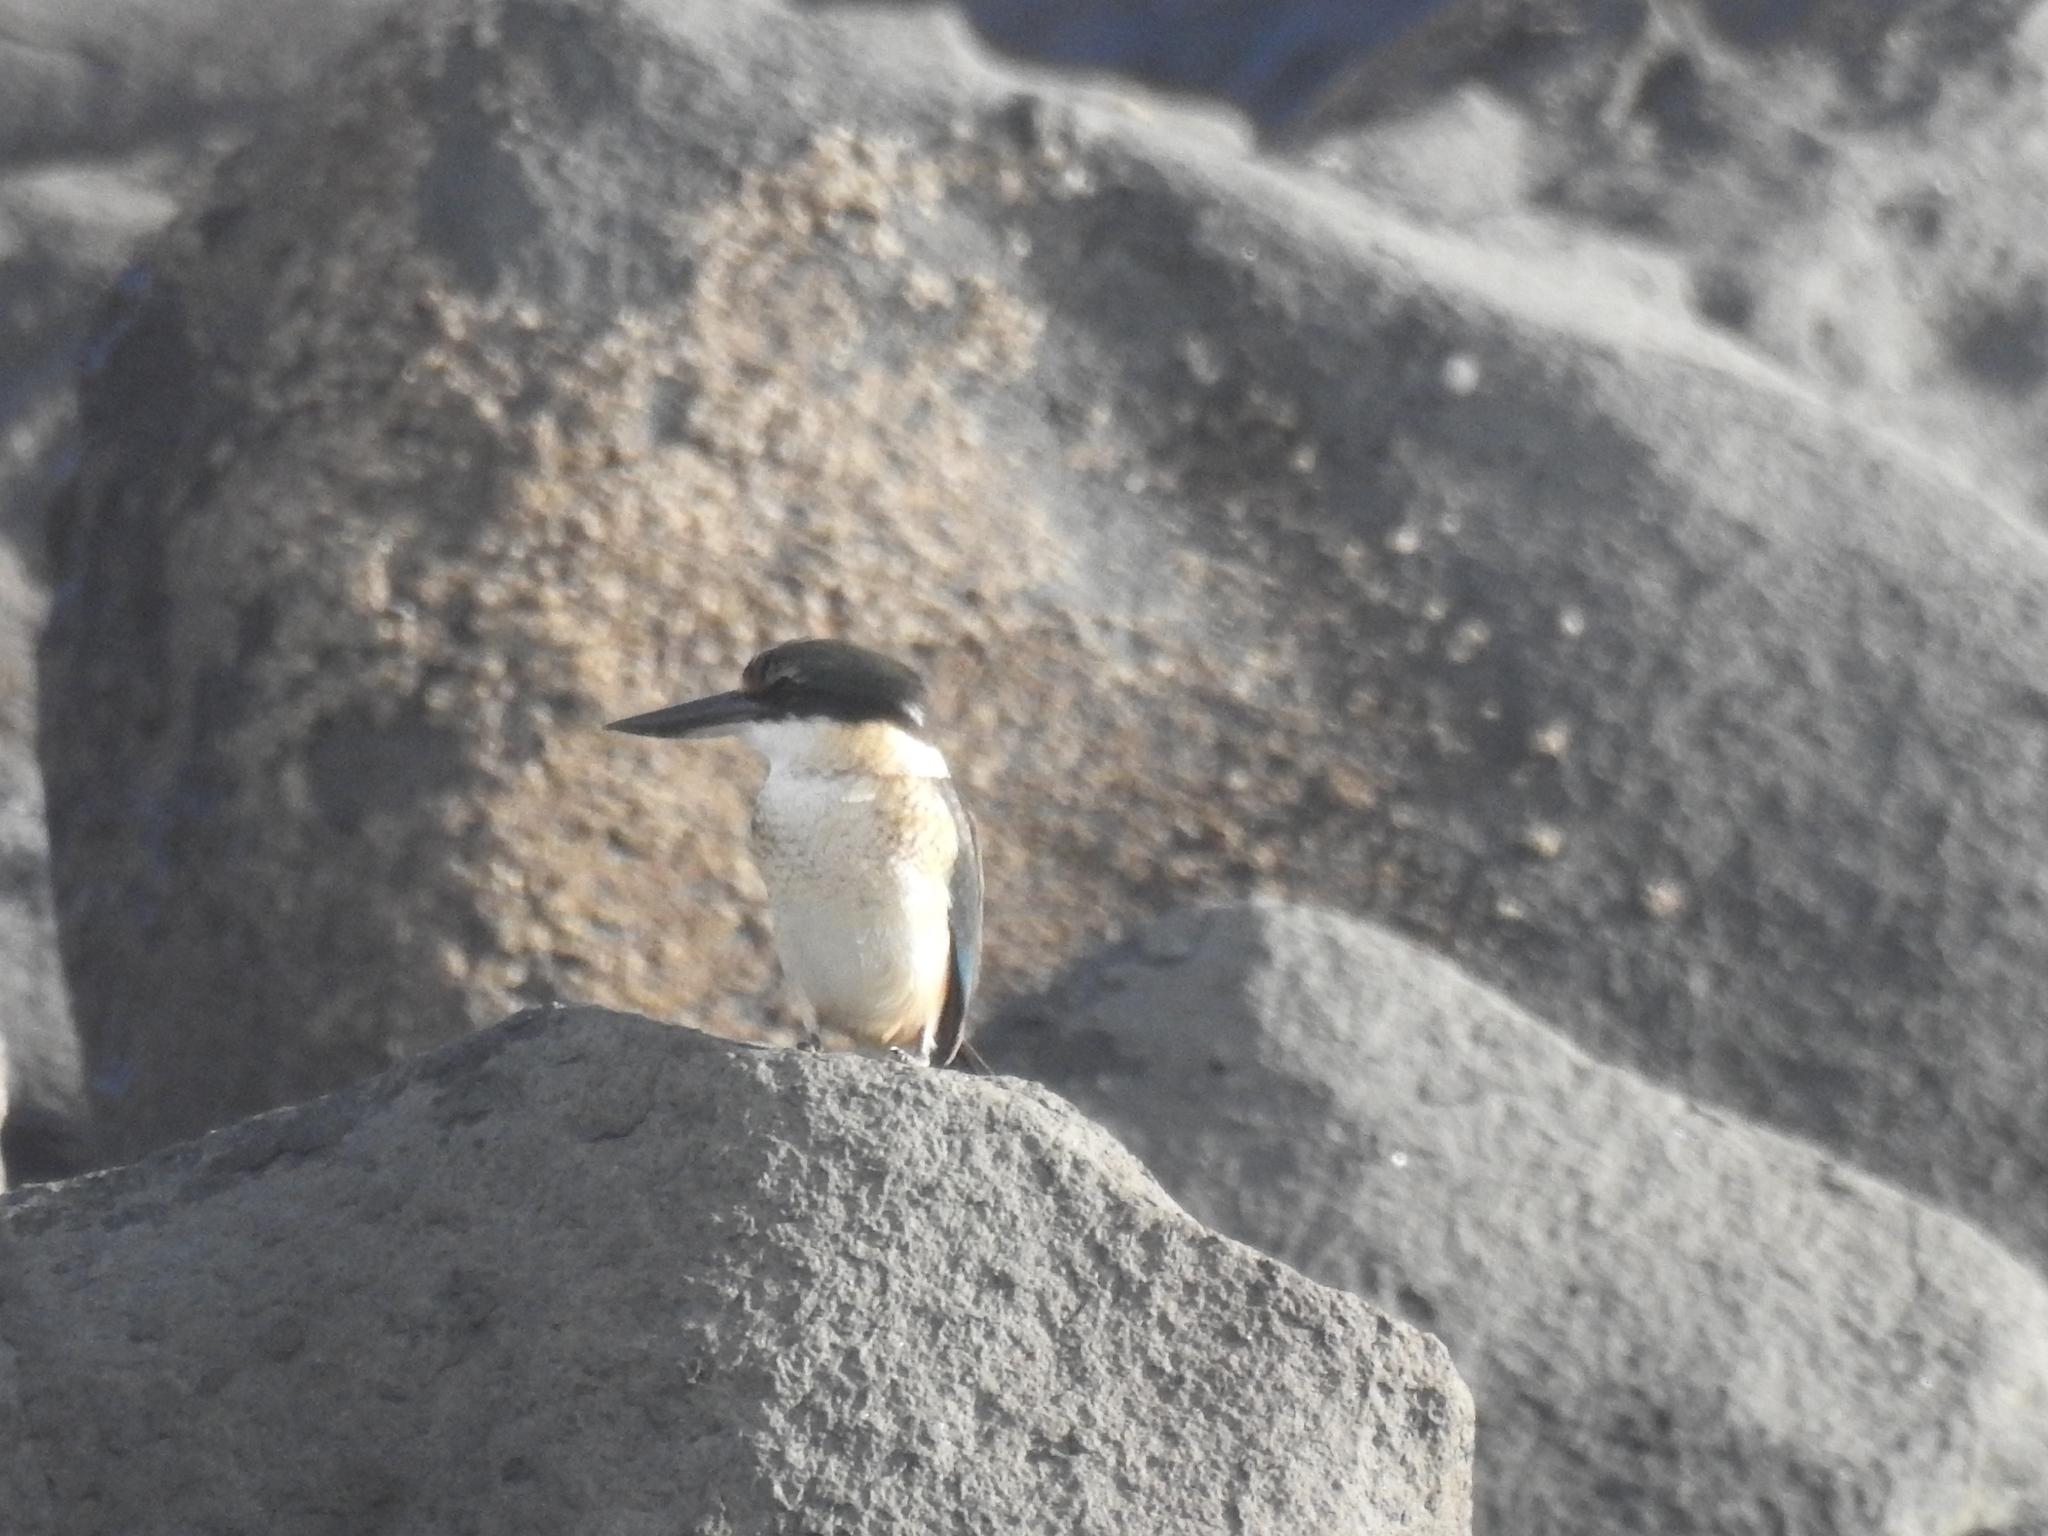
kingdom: Animalia
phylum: Chordata
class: Aves
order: Coraciiformes
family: Alcedinidae
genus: Todiramphus
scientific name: Todiramphus sanctus
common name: Sacred kingfisher
